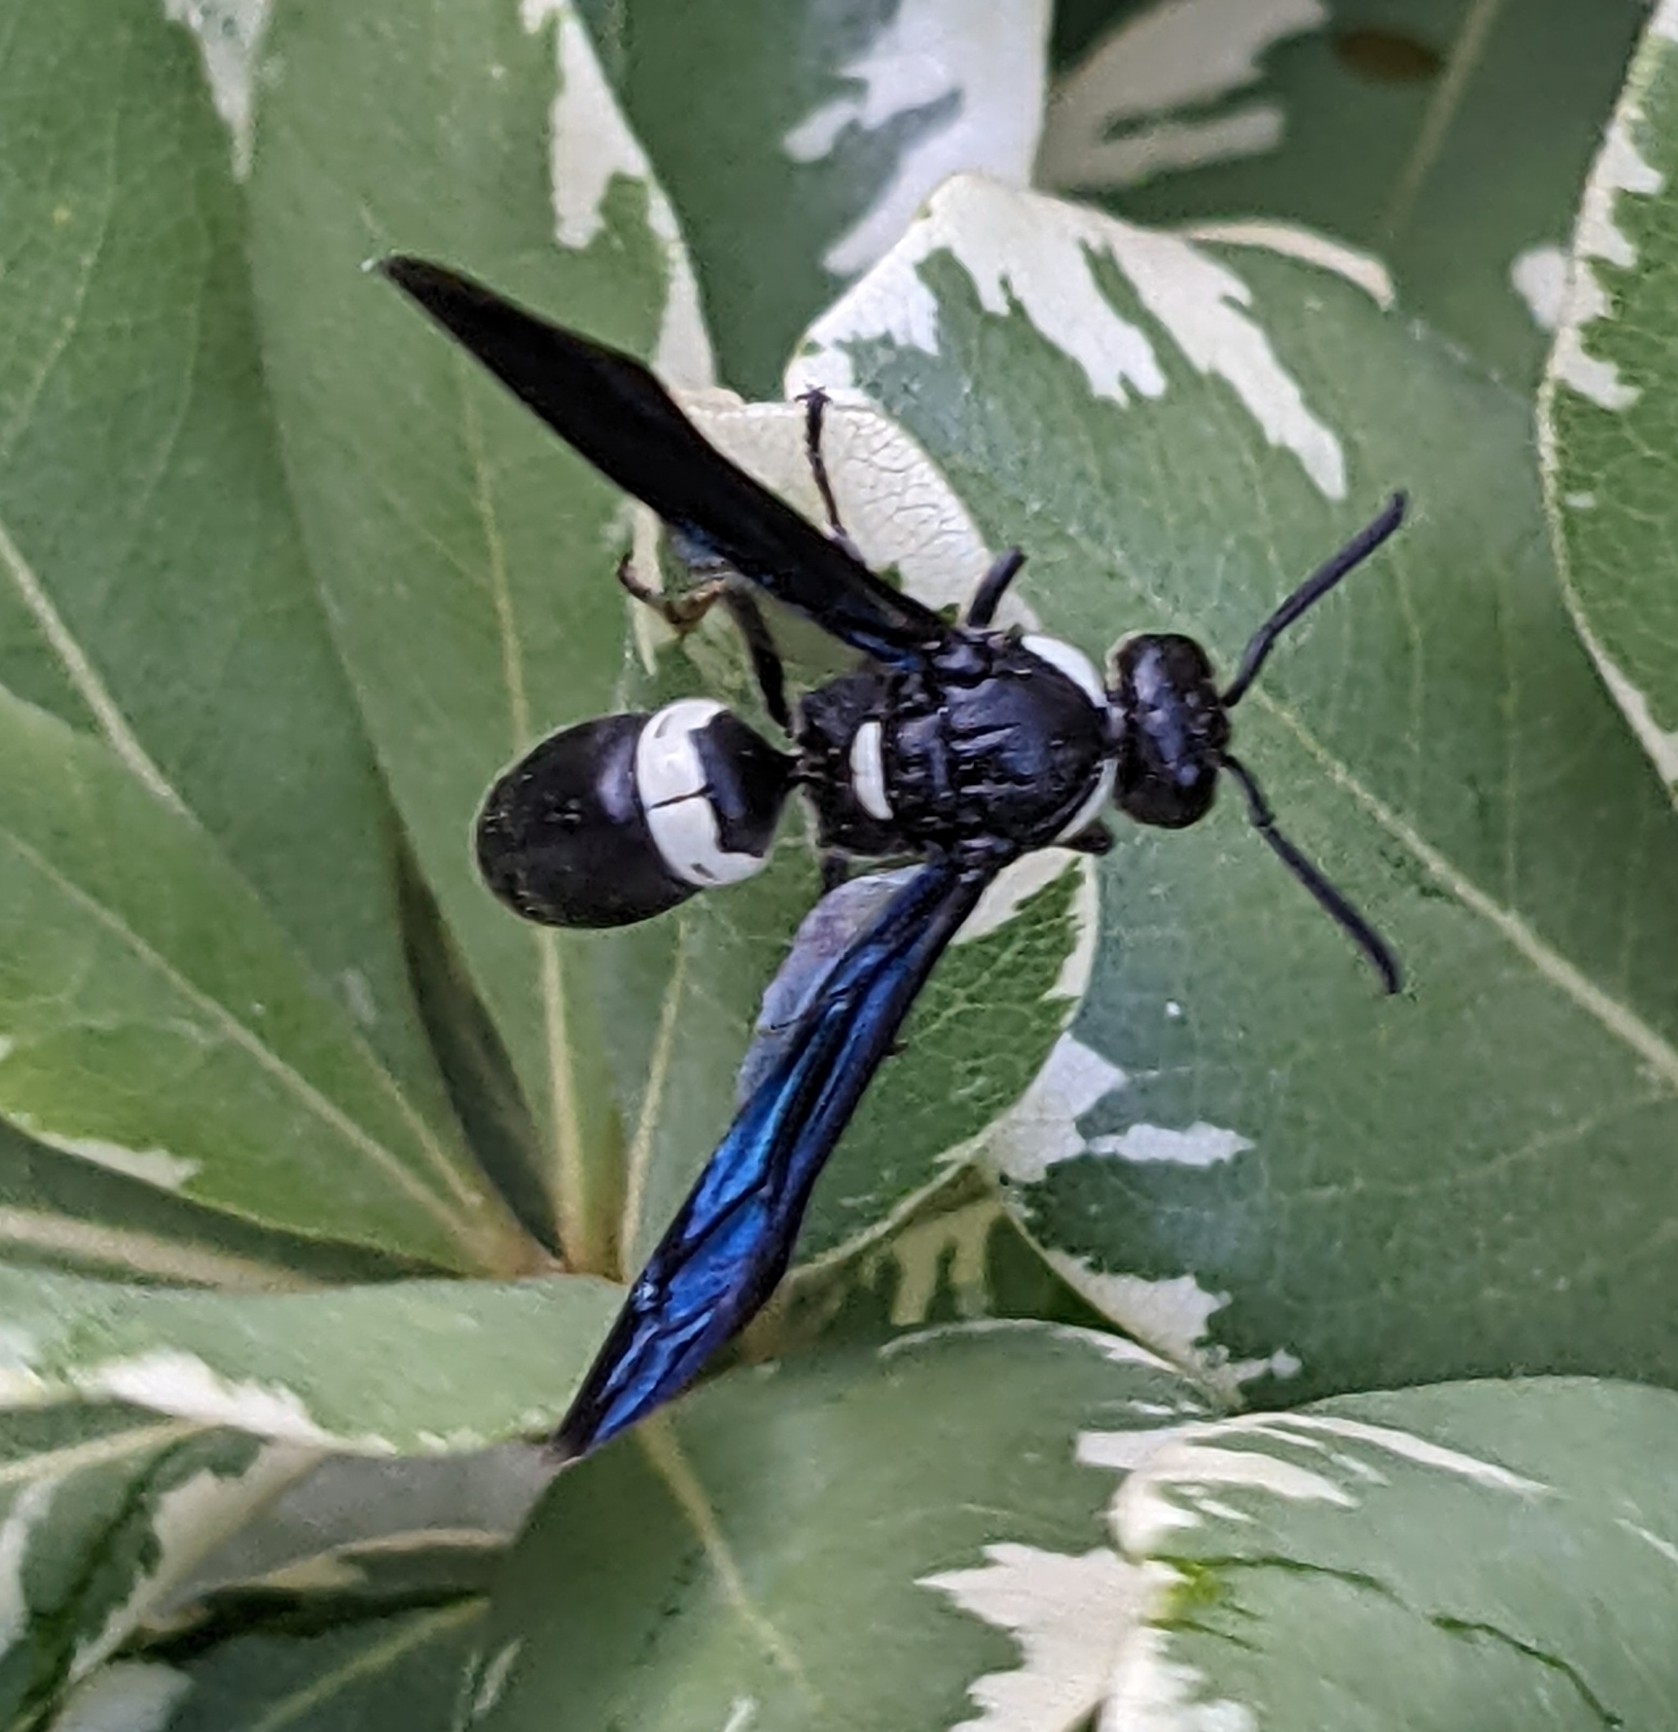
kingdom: Animalia
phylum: Arthropoda
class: Insecta
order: Hymenoptera
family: Eumenidae
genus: Monobia
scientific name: Monobia quadridens
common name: Four-toothed mason wasp
